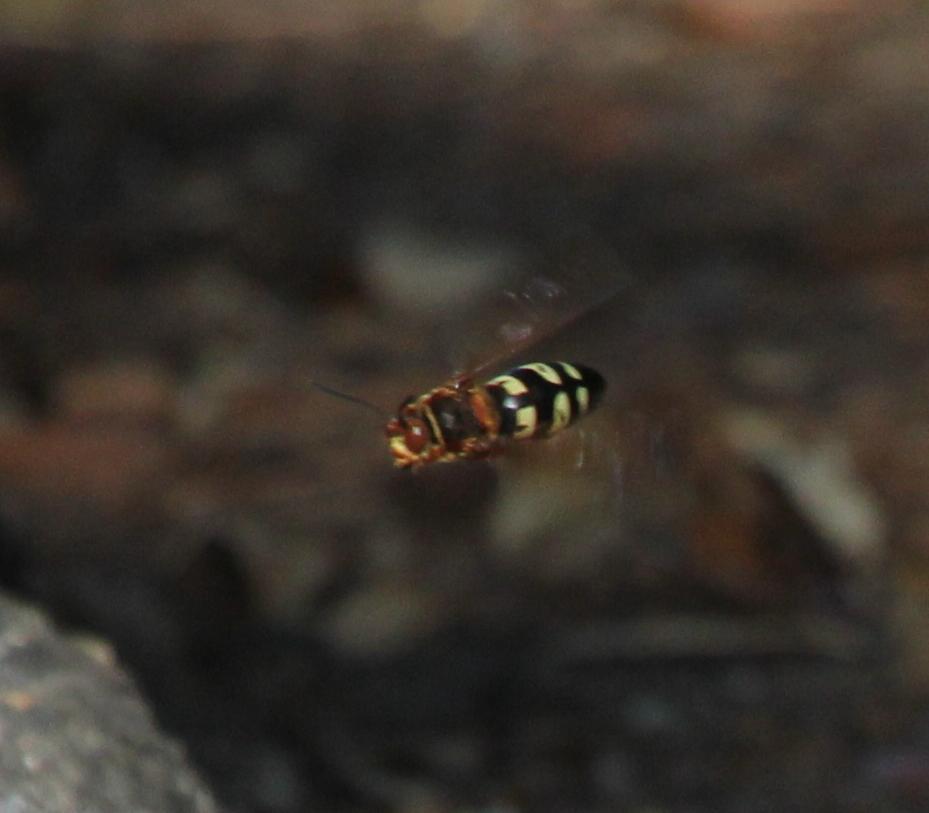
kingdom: Animalia
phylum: Arthropoda
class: Insecta
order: Hymenoptera
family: Crabronidae
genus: Sphecius
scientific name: Sphecius speciosus
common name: Cicada killer
